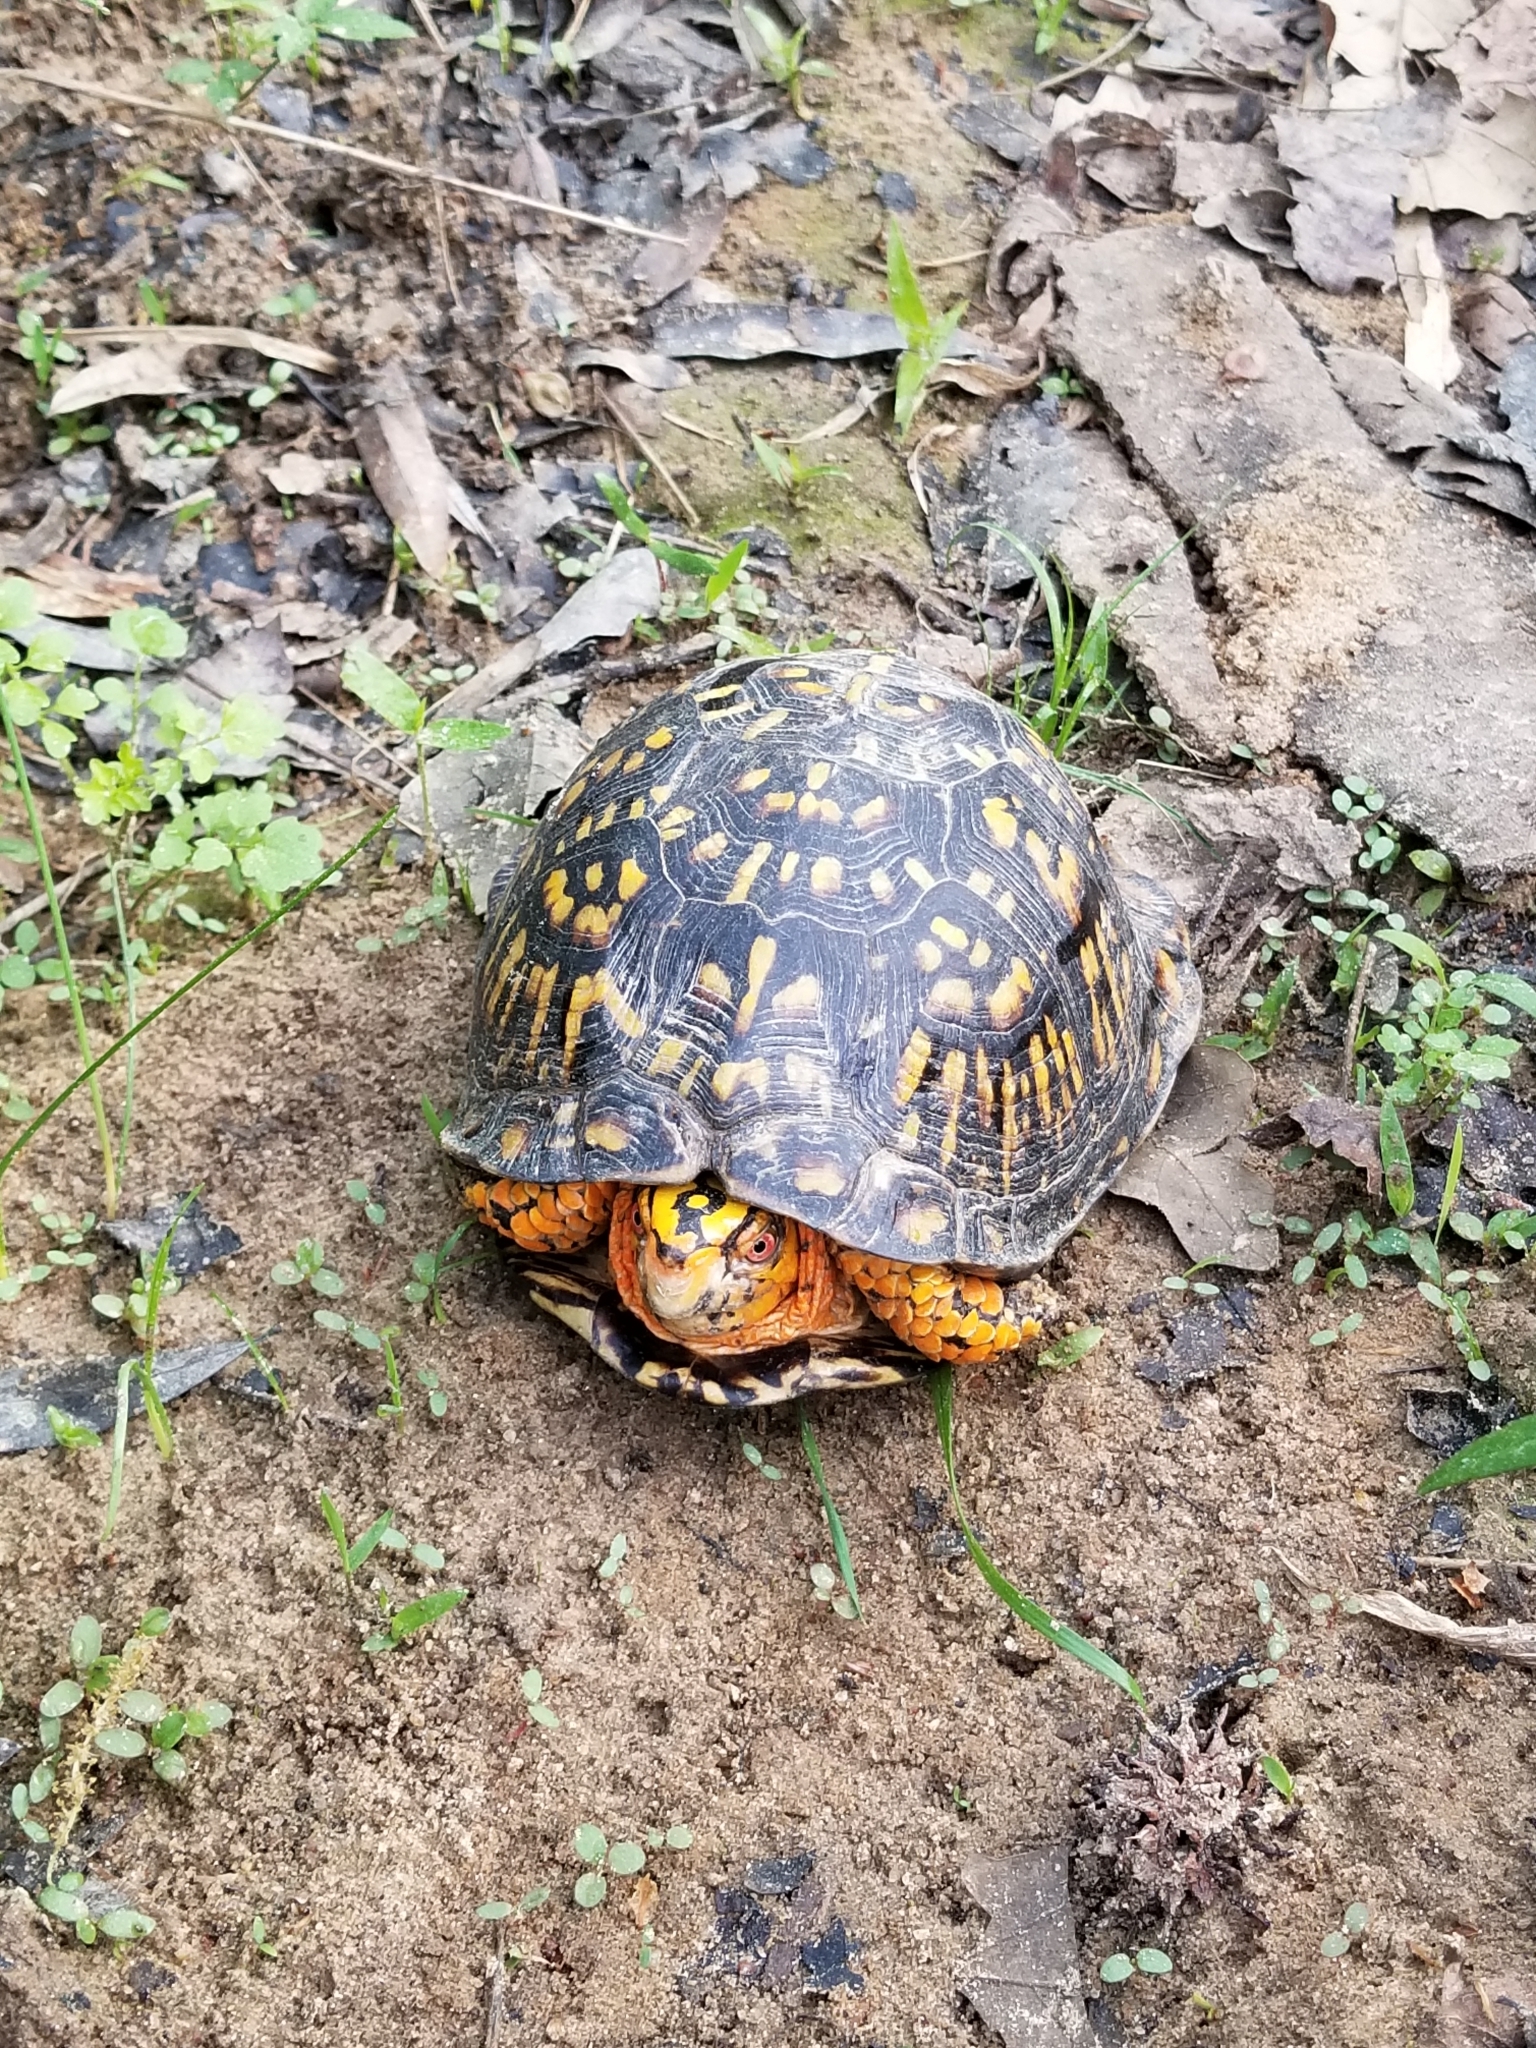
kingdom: Animalia
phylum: Chordata
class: Testudines
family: Emydidae
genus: Terrapene
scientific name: Terrapene carolina
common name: Common box turtle
